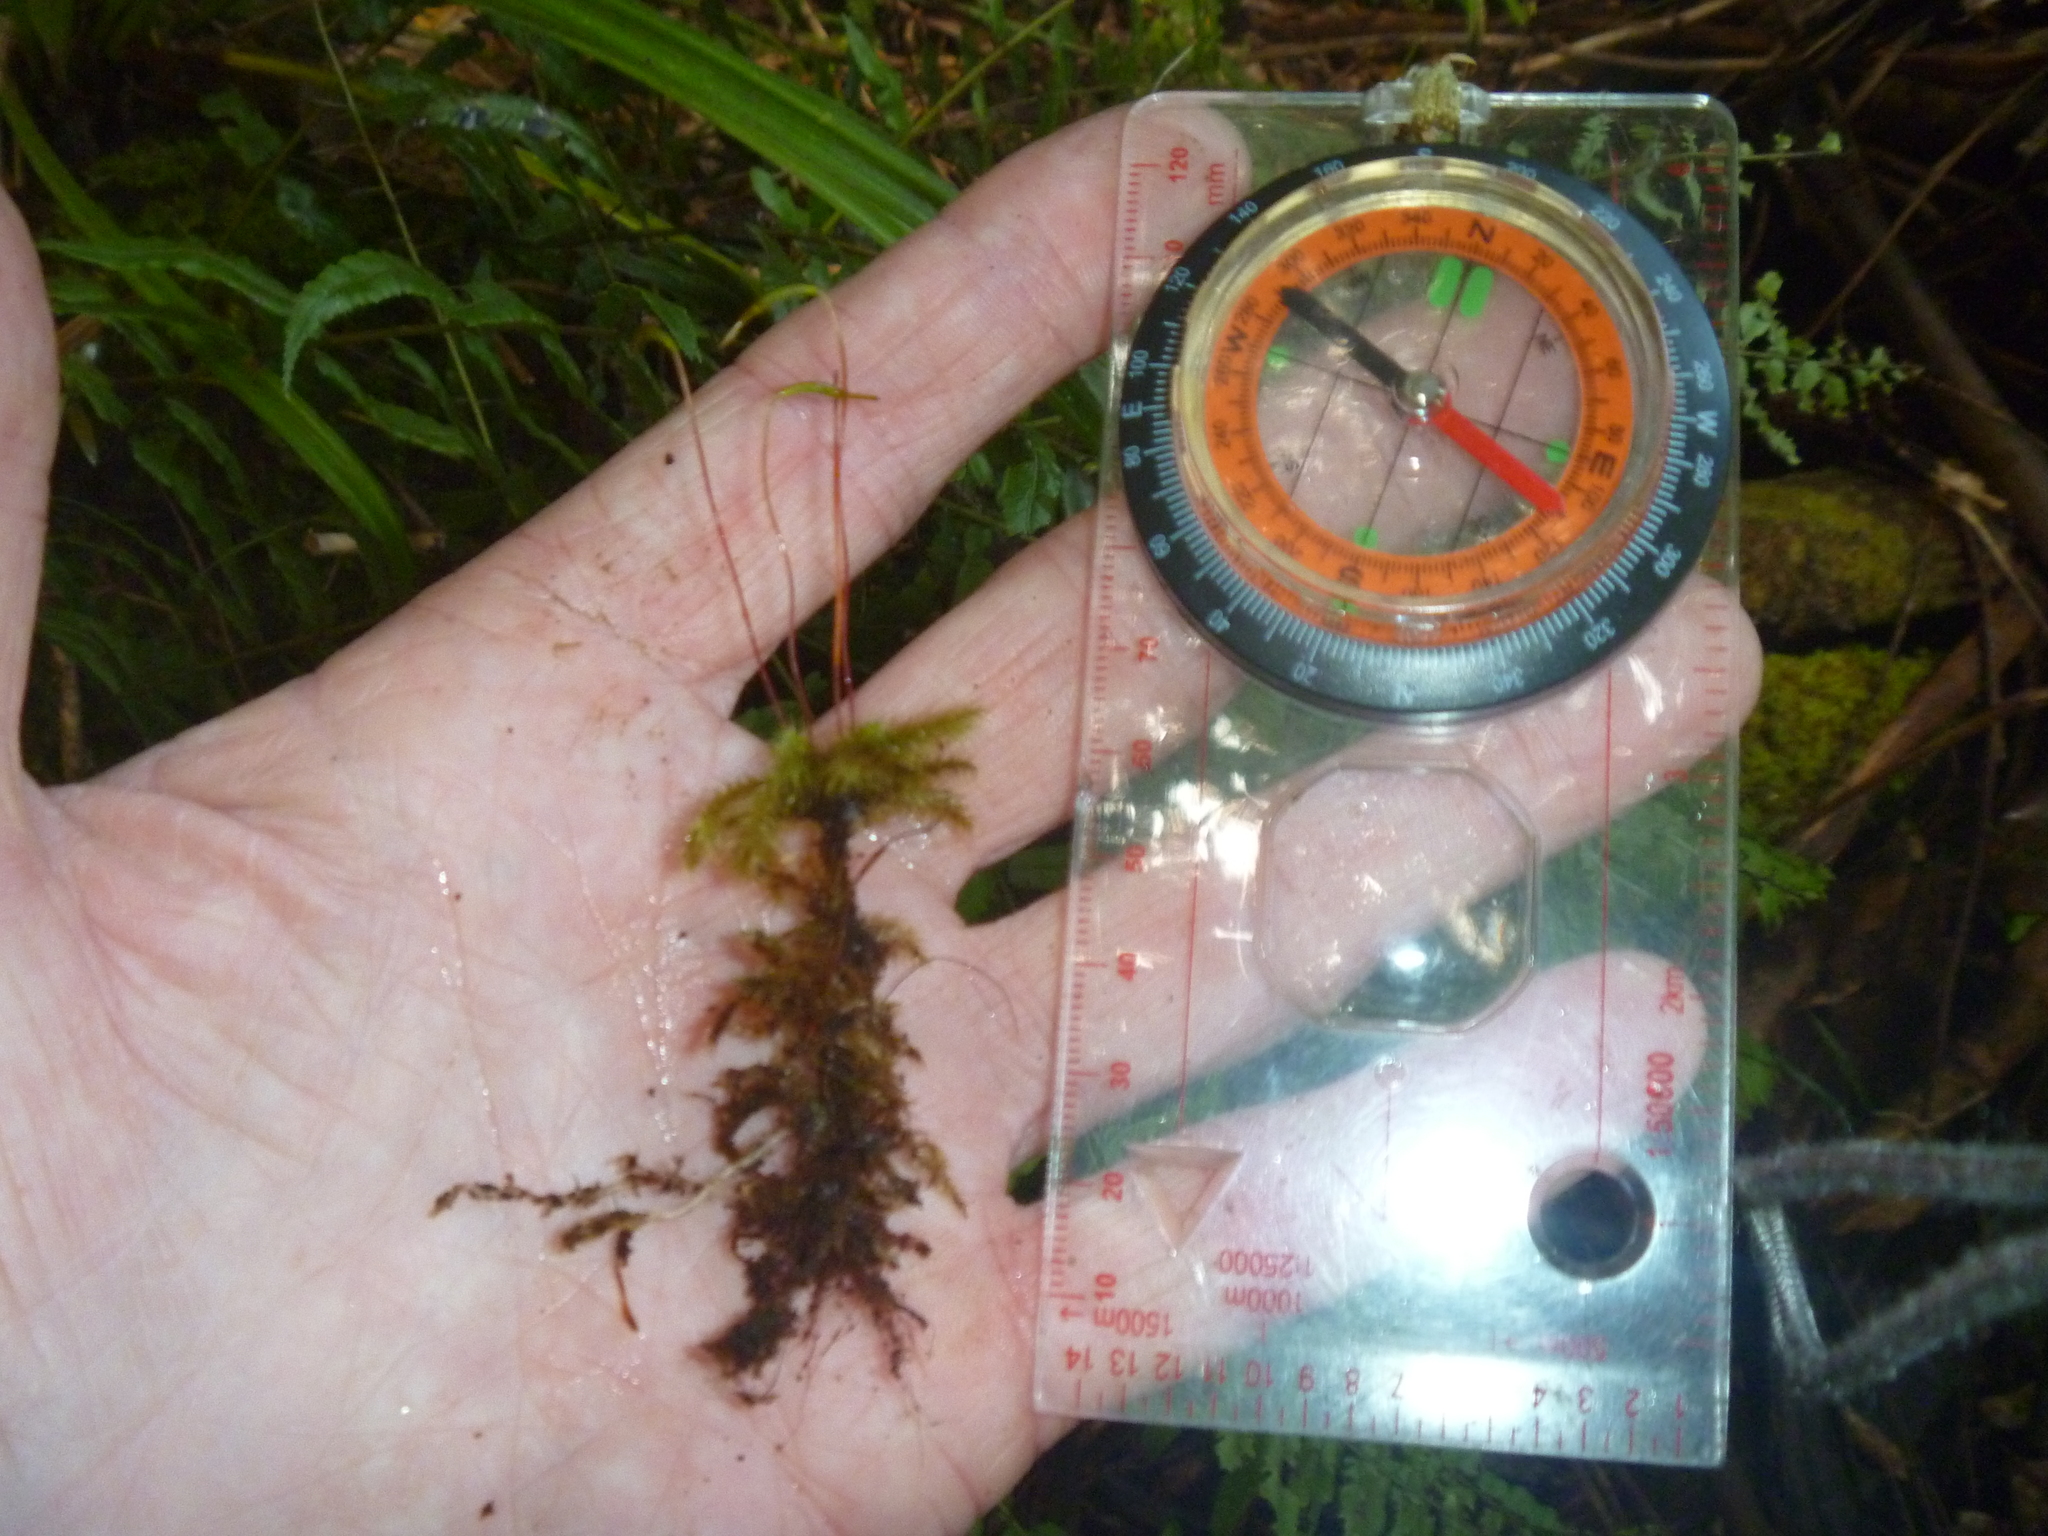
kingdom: Plantae
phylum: Bryophyta
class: Bryopsida
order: Hypnodendrales
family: Spiridentaceae
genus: Mniodendron
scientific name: Mniodendron colensoi
